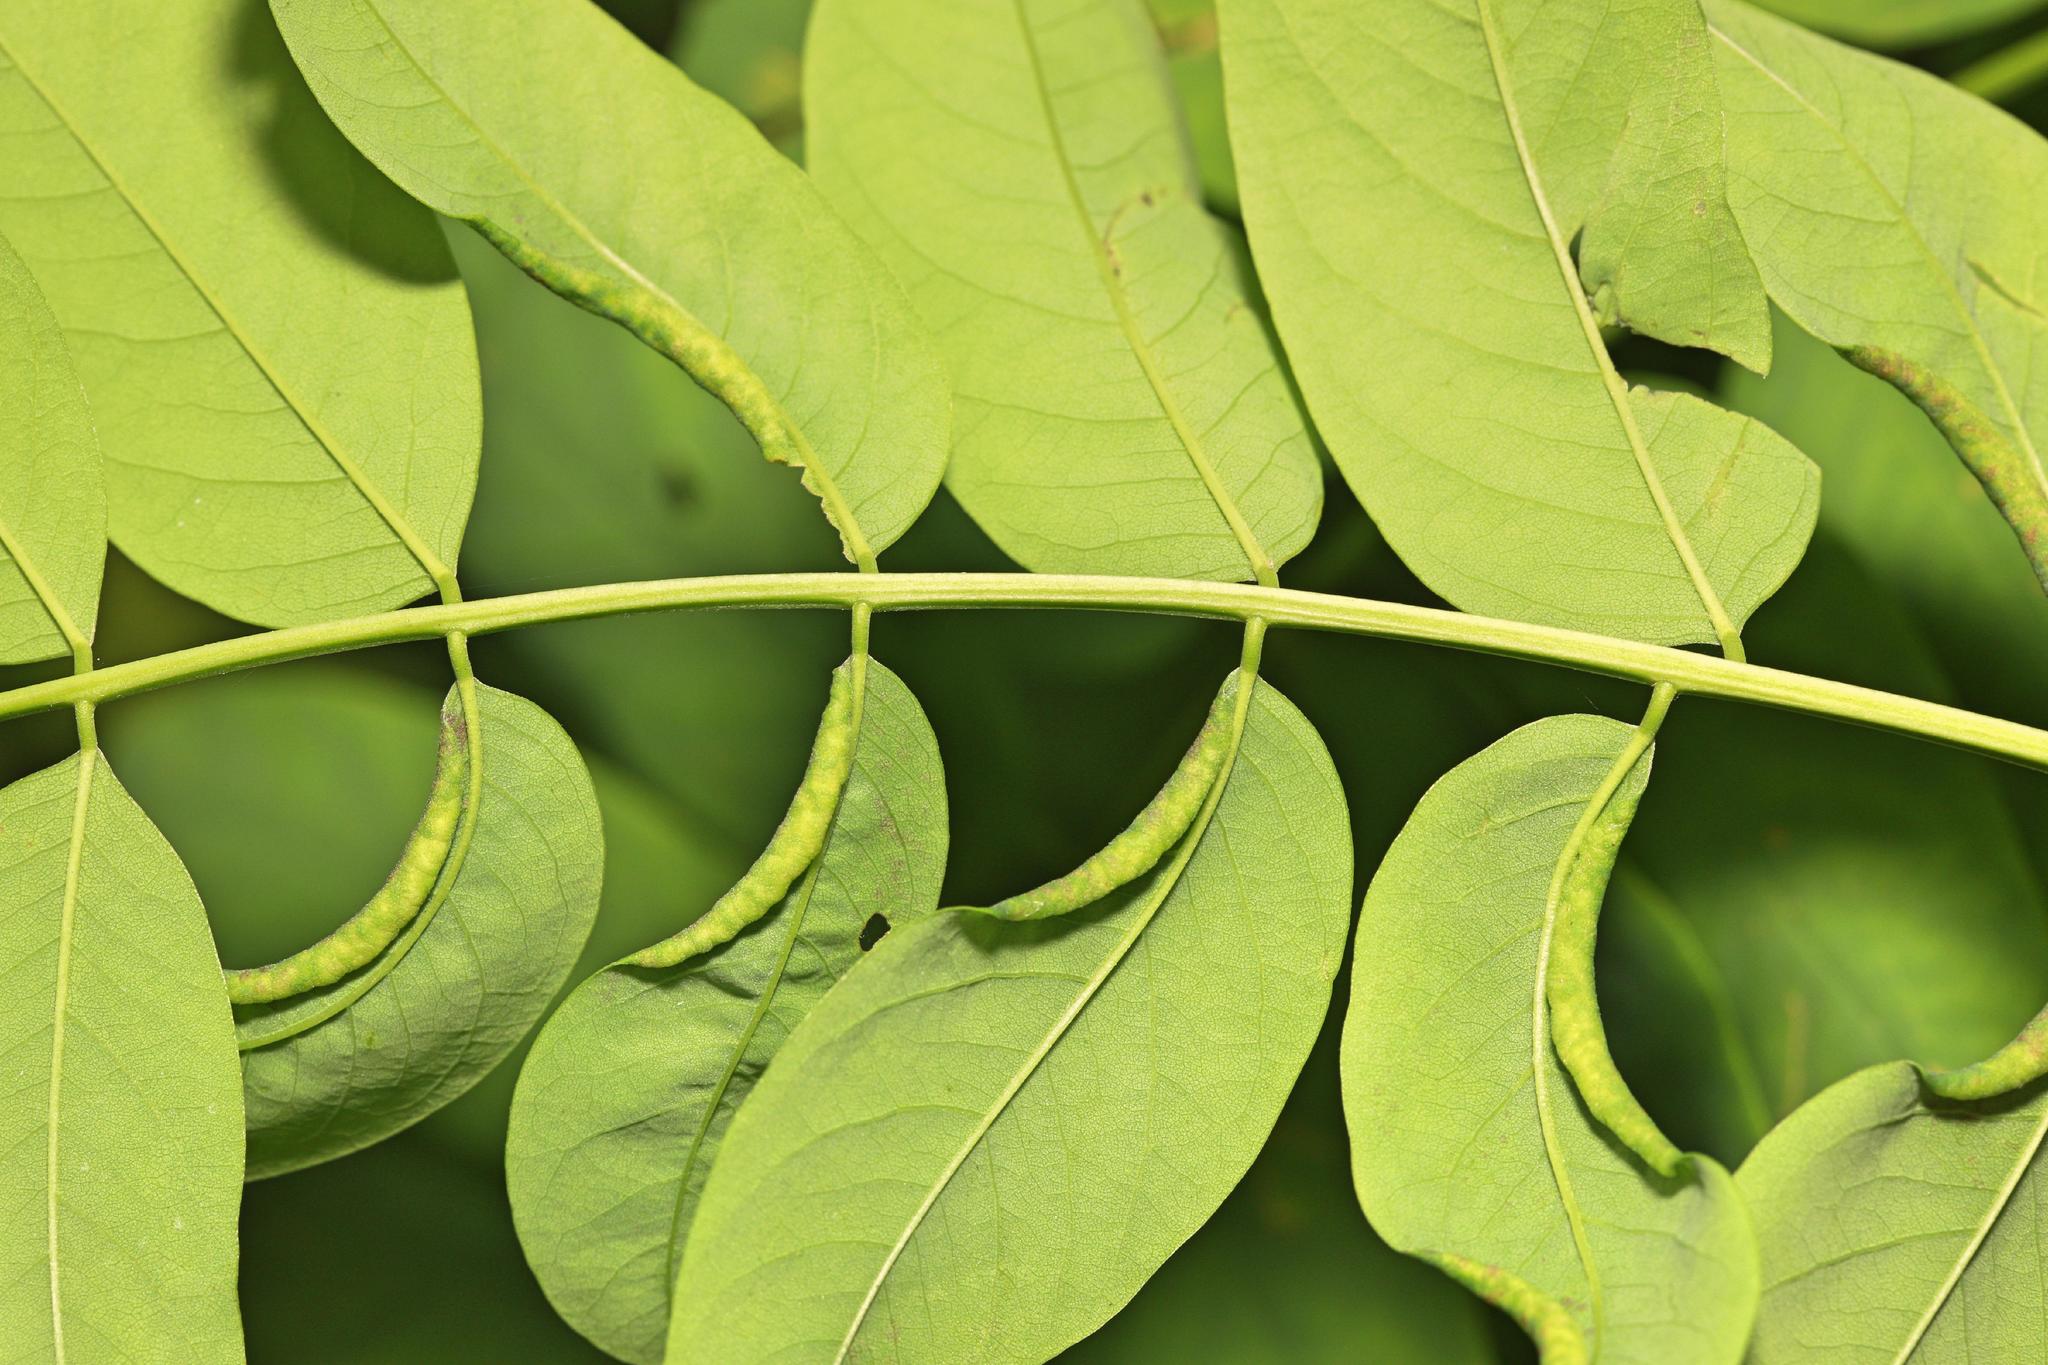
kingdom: Animalia
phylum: Arthropoda
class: Insecta
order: Diptera
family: Cecidomyiidae
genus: Obolodiplosis
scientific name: Obolodiplosis robiniae
